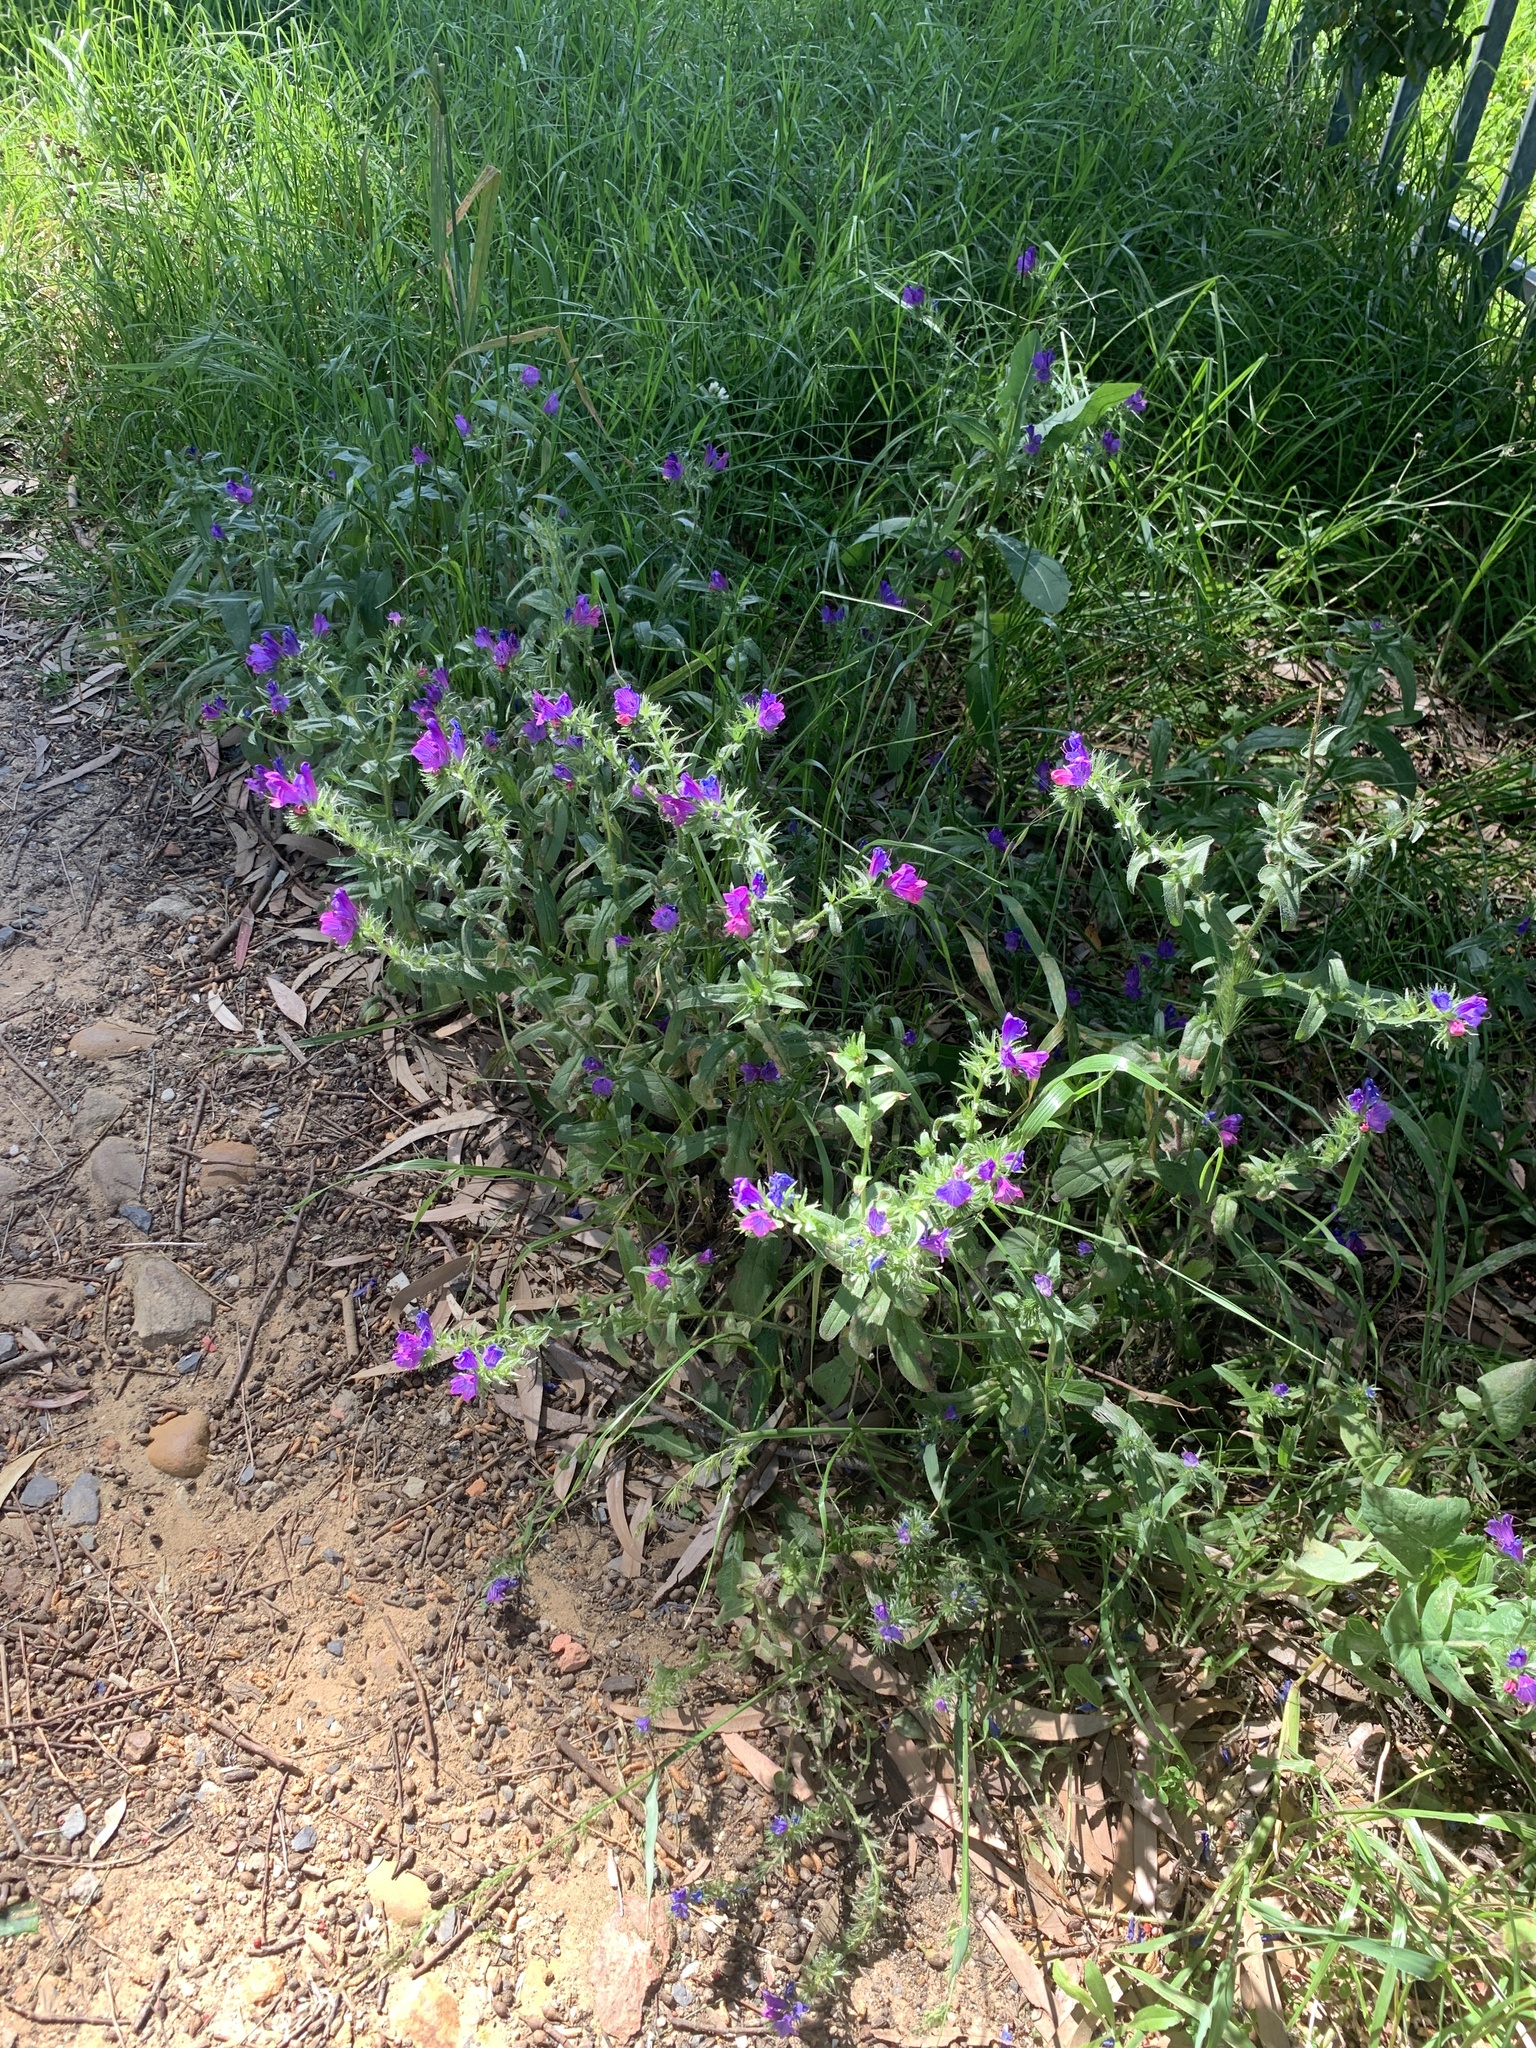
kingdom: Plantae
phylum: Tracheophyta
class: Magnoliopsida
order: Boraginales
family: Boraginaceae
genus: Echium
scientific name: Echium plantagineum
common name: Purple viper's-bugloss
